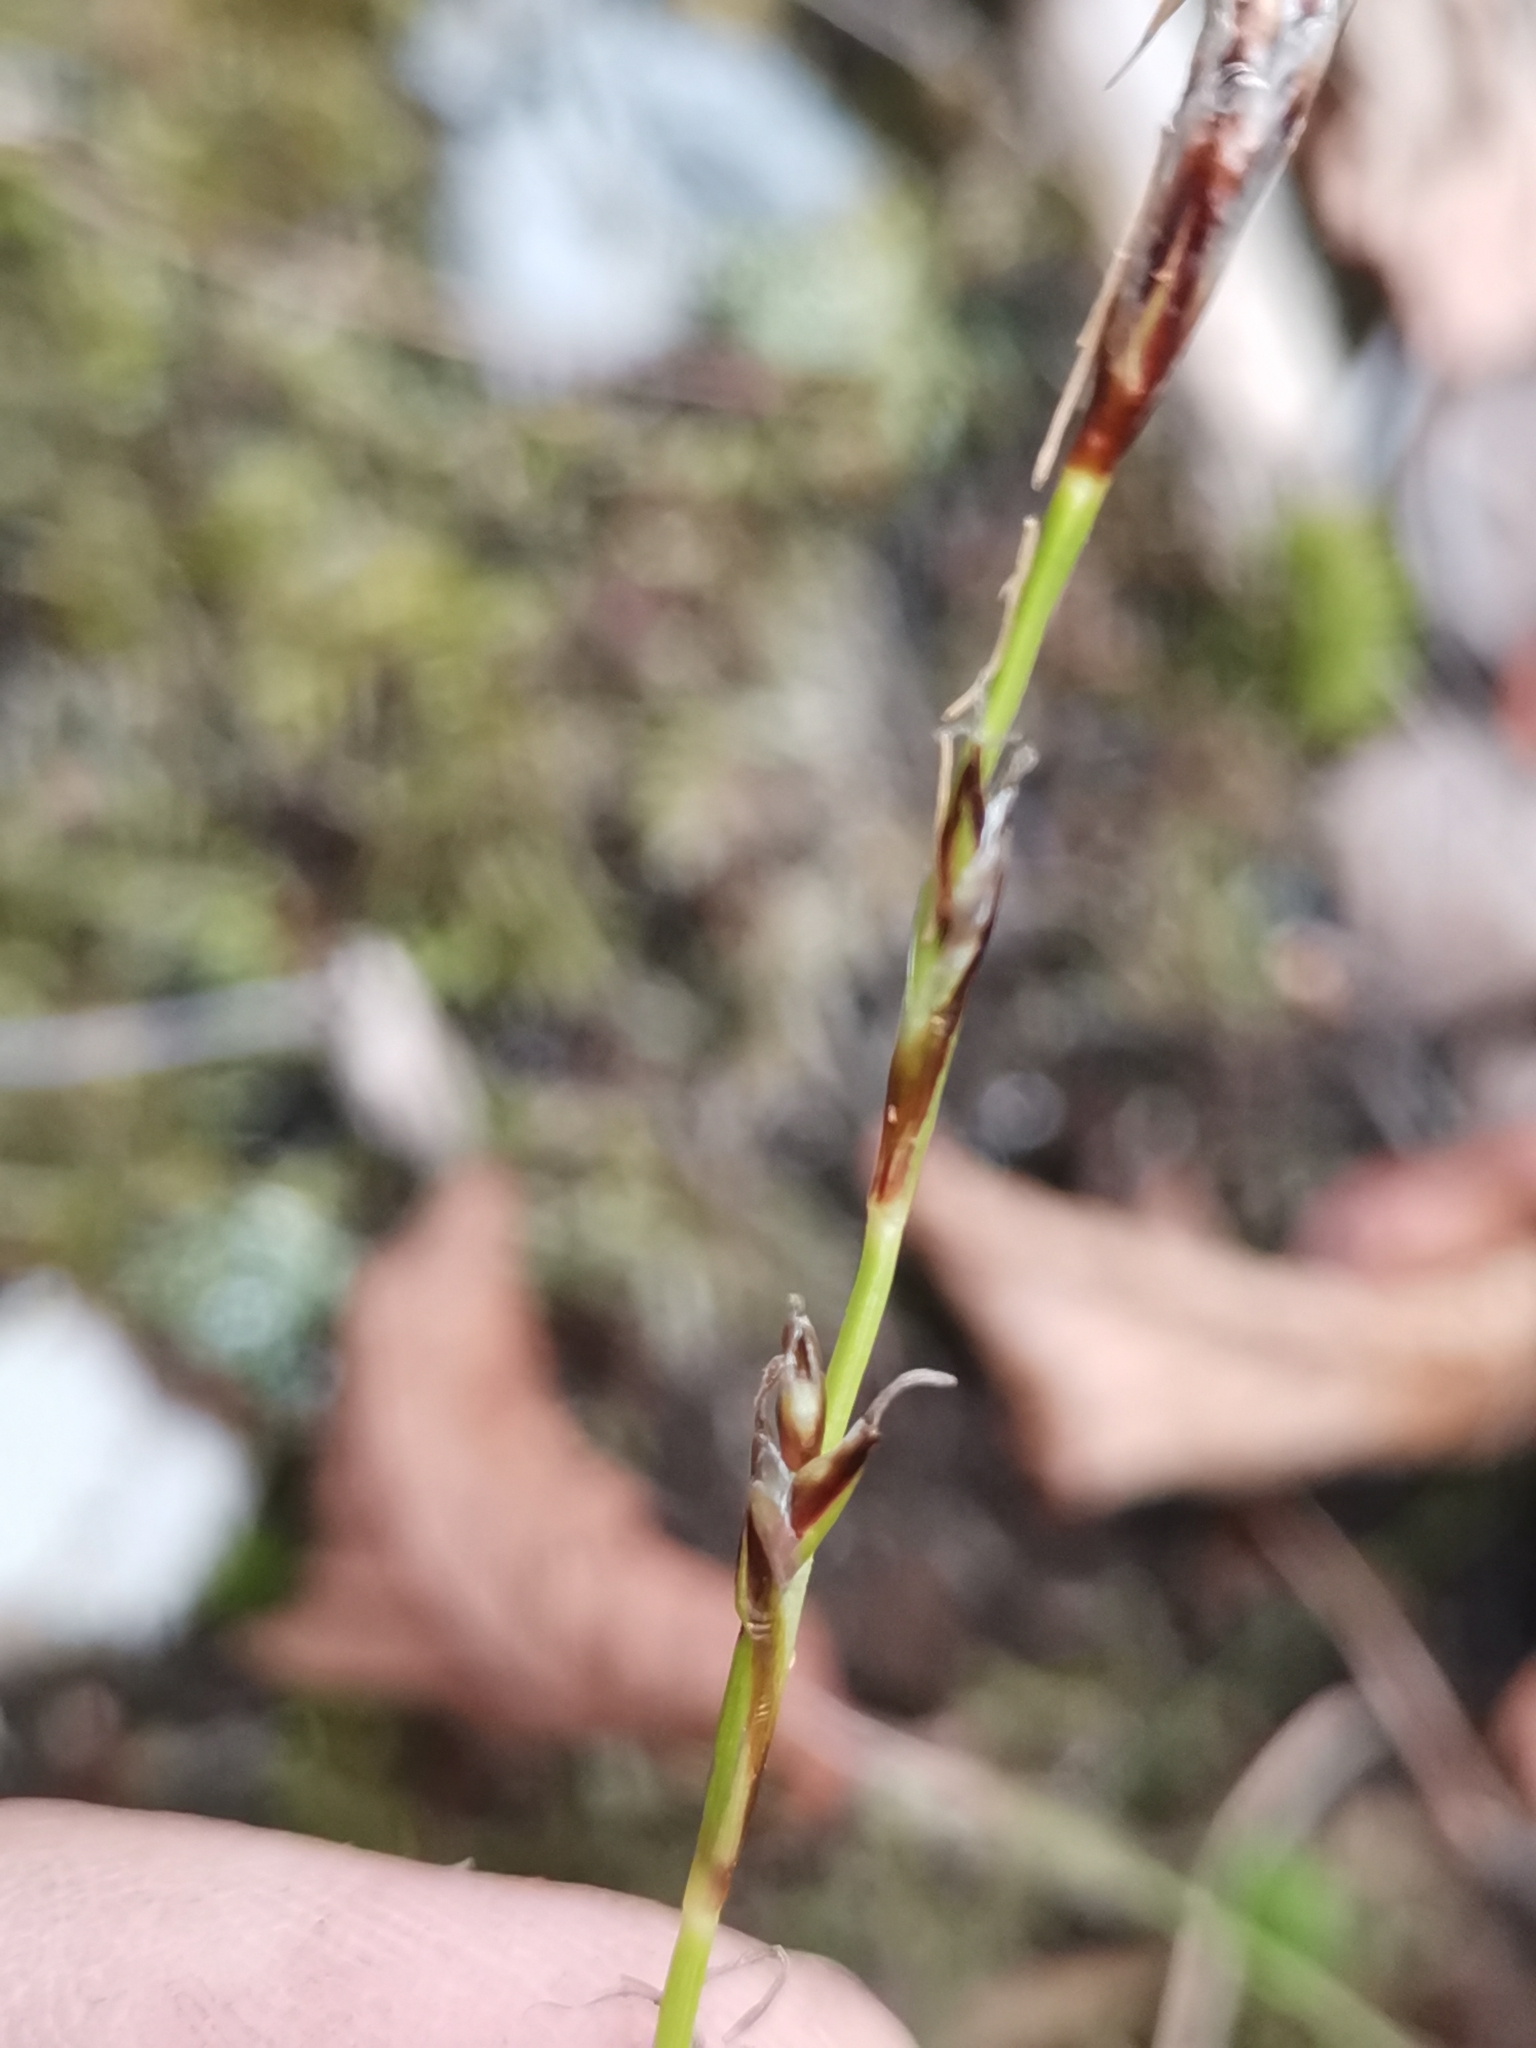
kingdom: Plantae
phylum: Tracheophyta
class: Liliopsida
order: Poales
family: Cyperaceae
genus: Carex
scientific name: Carex humilis
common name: Dwarf sedge
